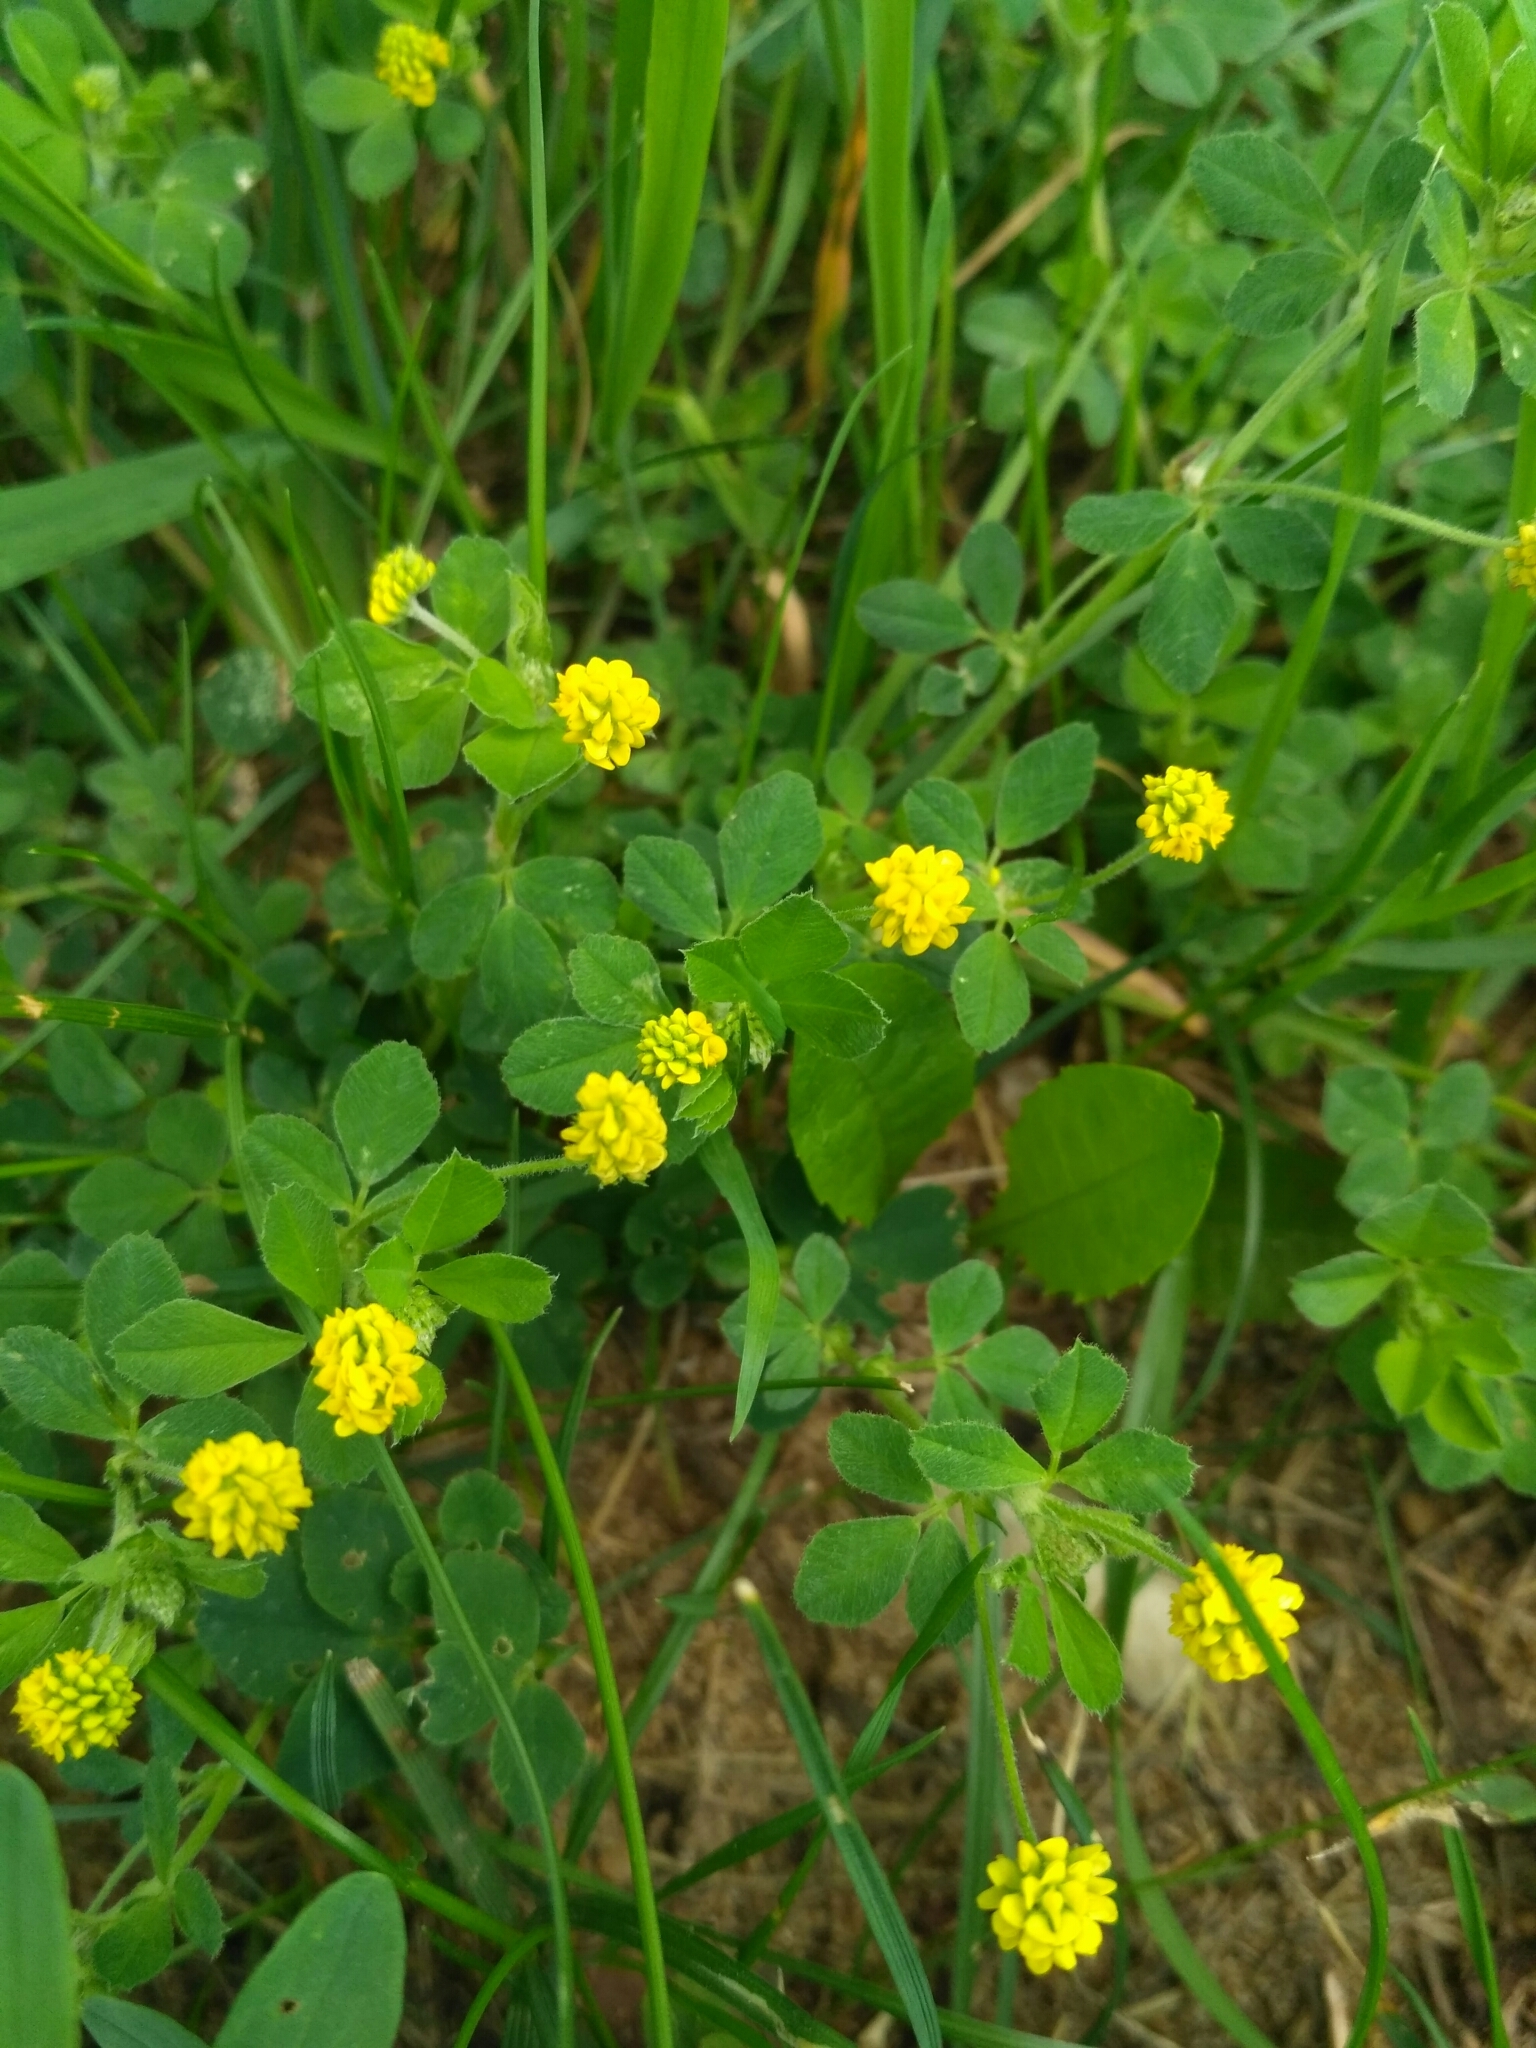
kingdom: Plantae
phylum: Tracheophyta
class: Magnoliopsida
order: Fabales
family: Fabaceae
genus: Medicago
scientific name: Medicago lupulina
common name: Black medick
